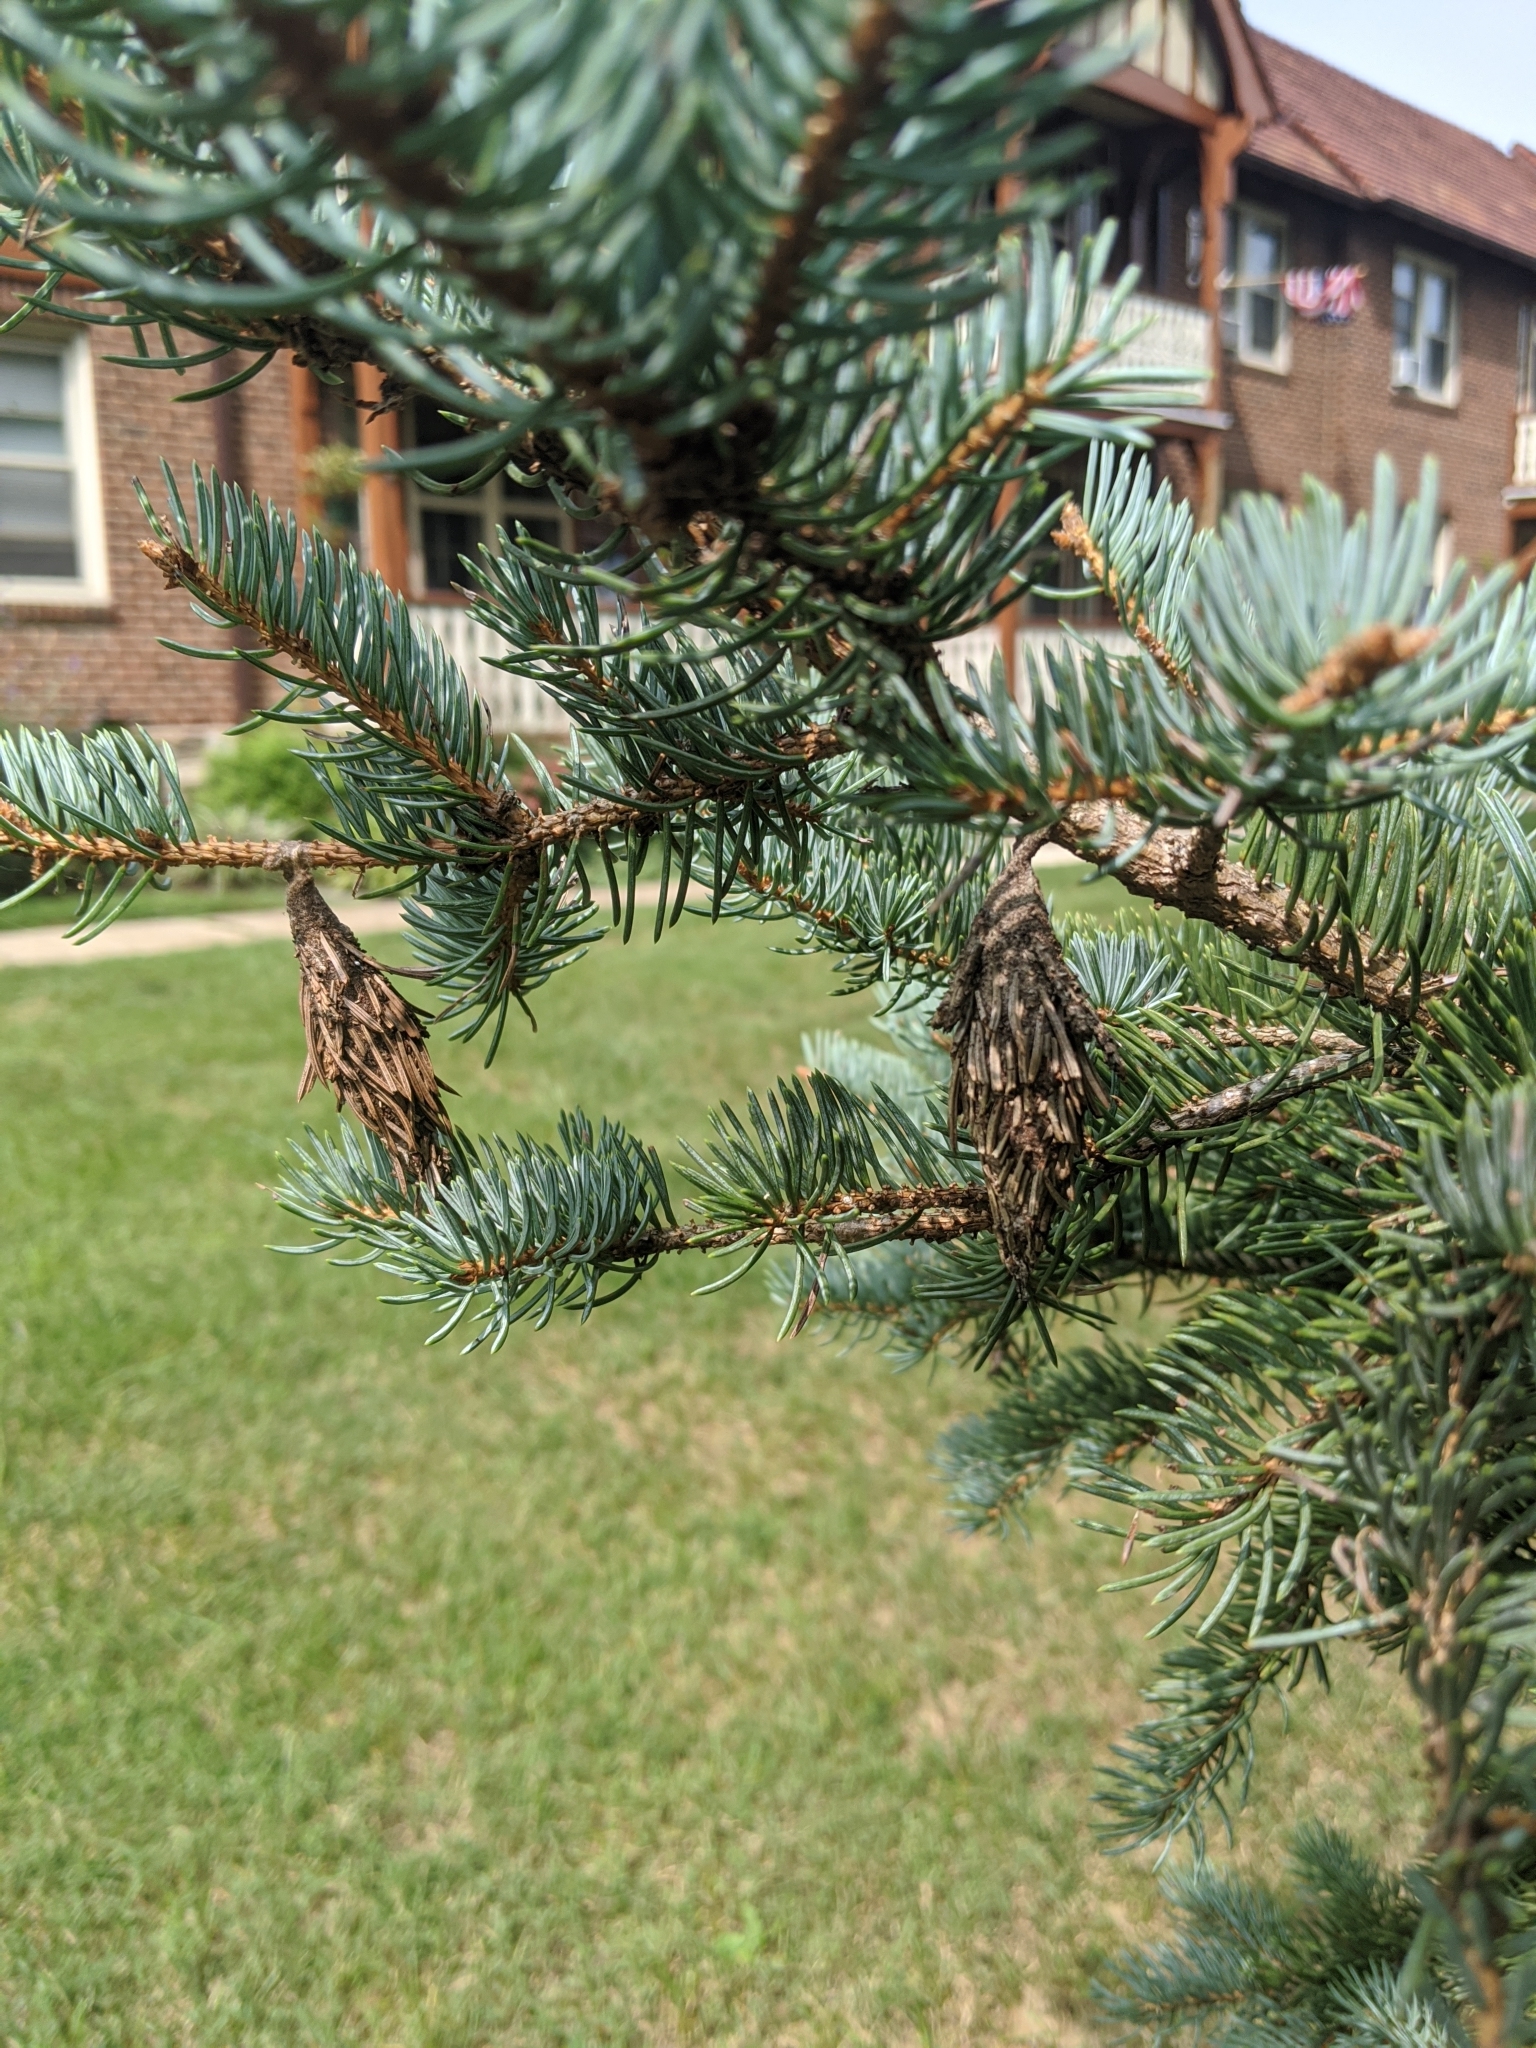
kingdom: Animalia
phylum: Arthropoda
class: Insecta
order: Lepidoptera
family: Psychidae
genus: Thyridopteryx
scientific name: Thyridopteryx ephemeraeformis
